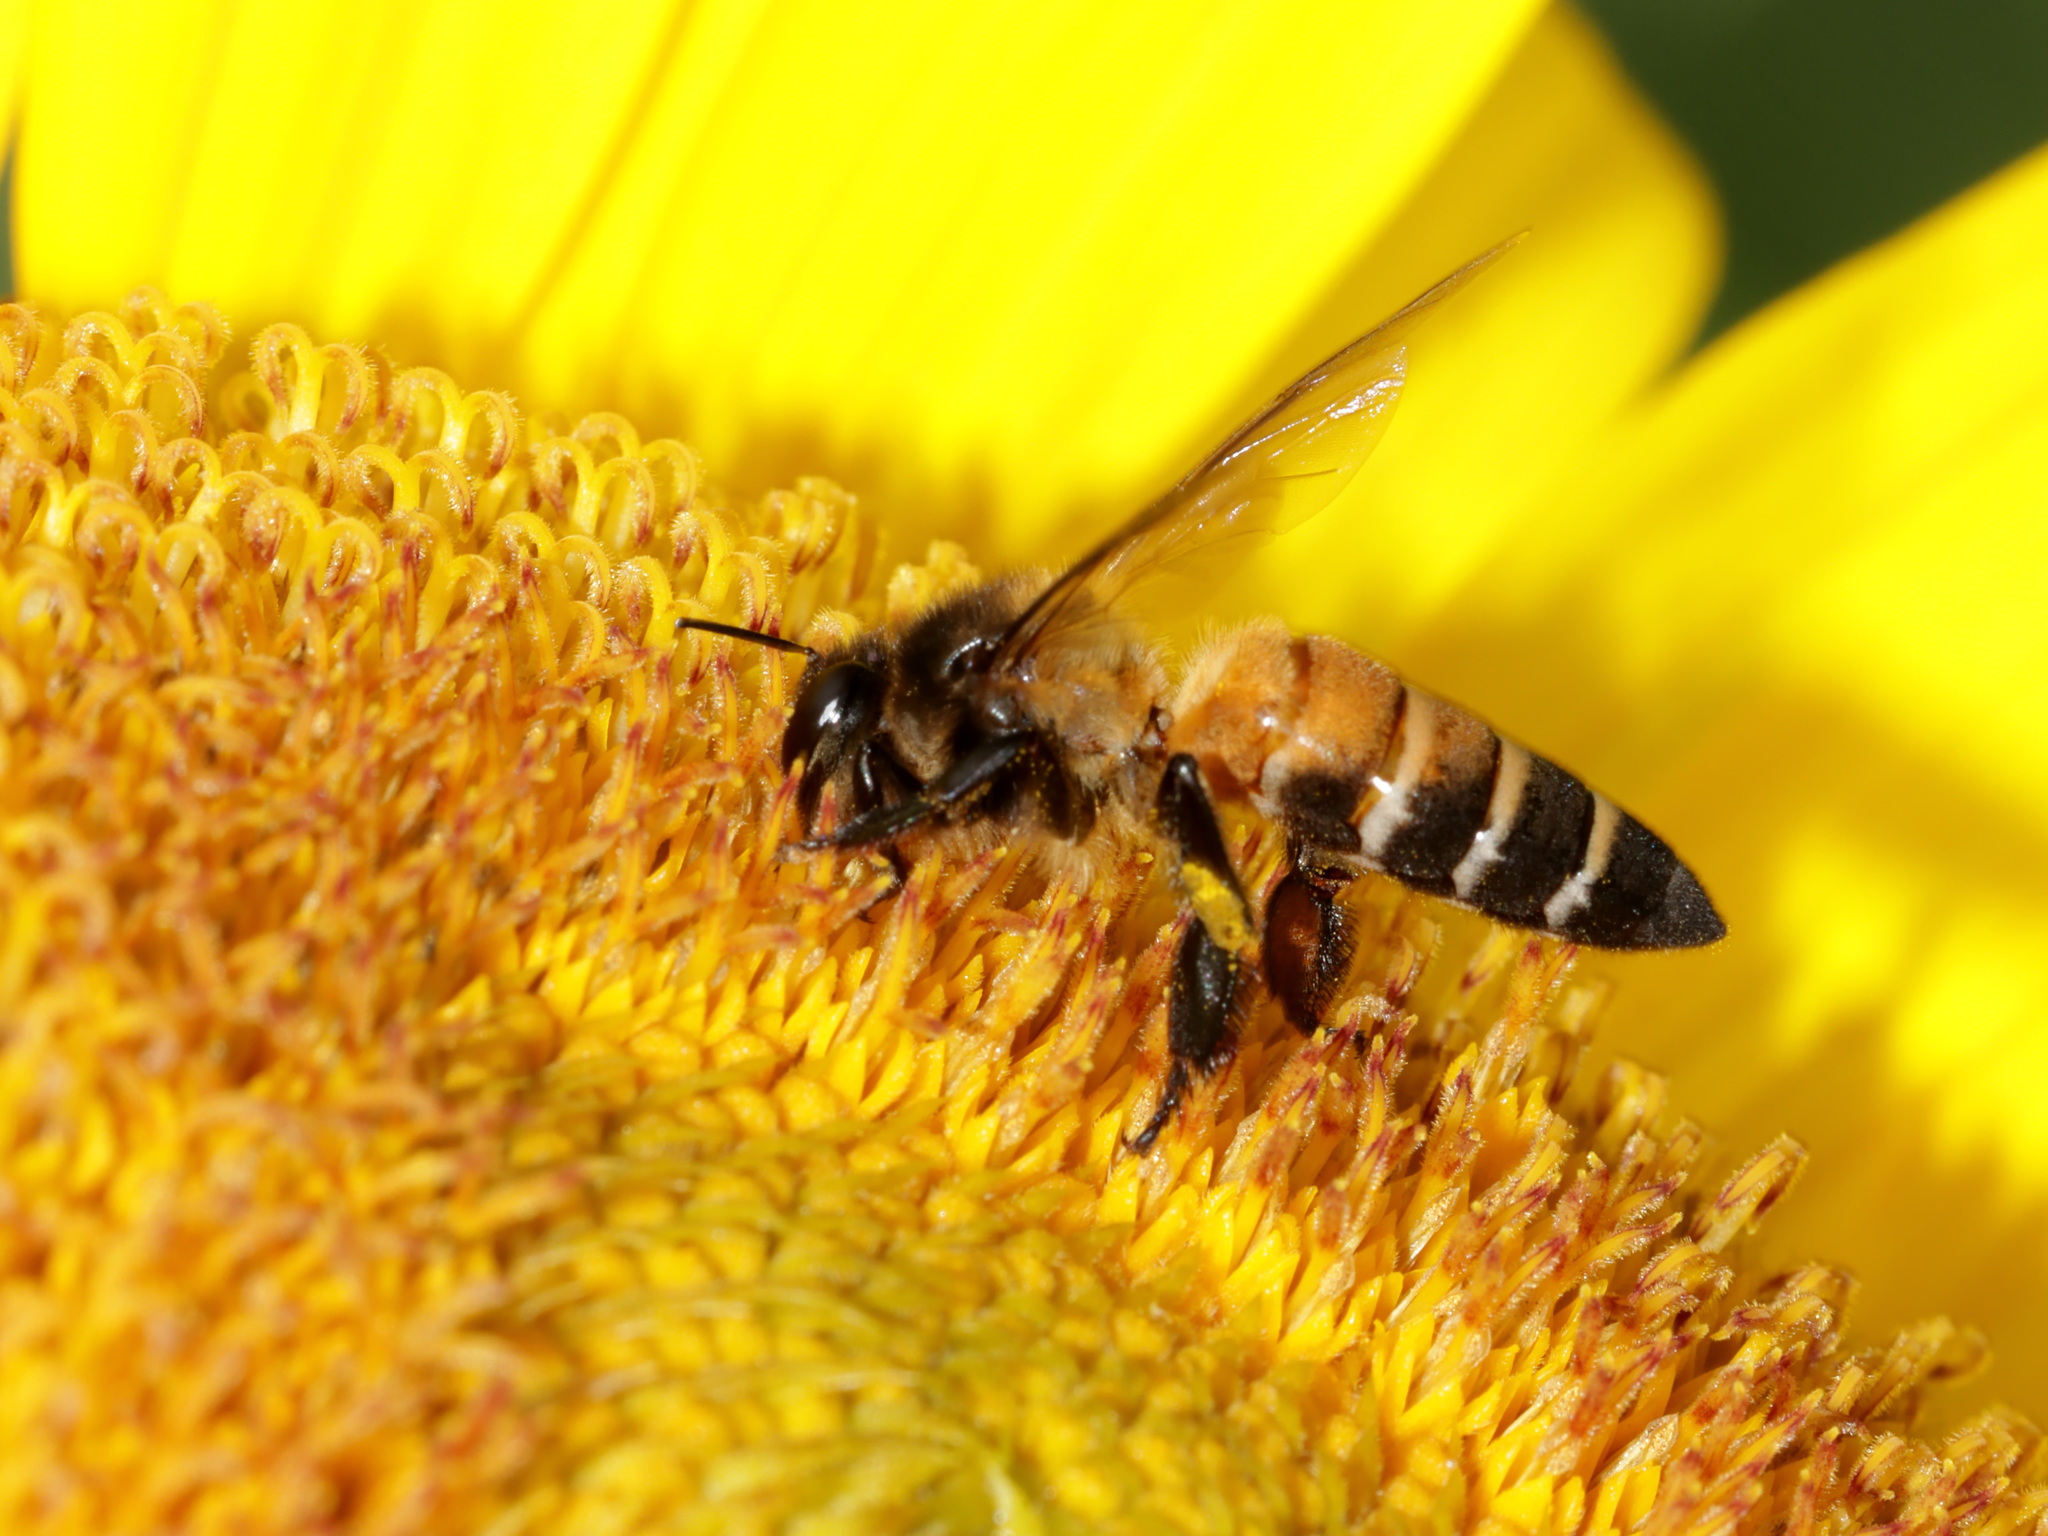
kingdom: Animalia
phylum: Arthropoda
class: Insecta
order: Hymenoptera
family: Apidae
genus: Apis
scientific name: Apis dorsata
